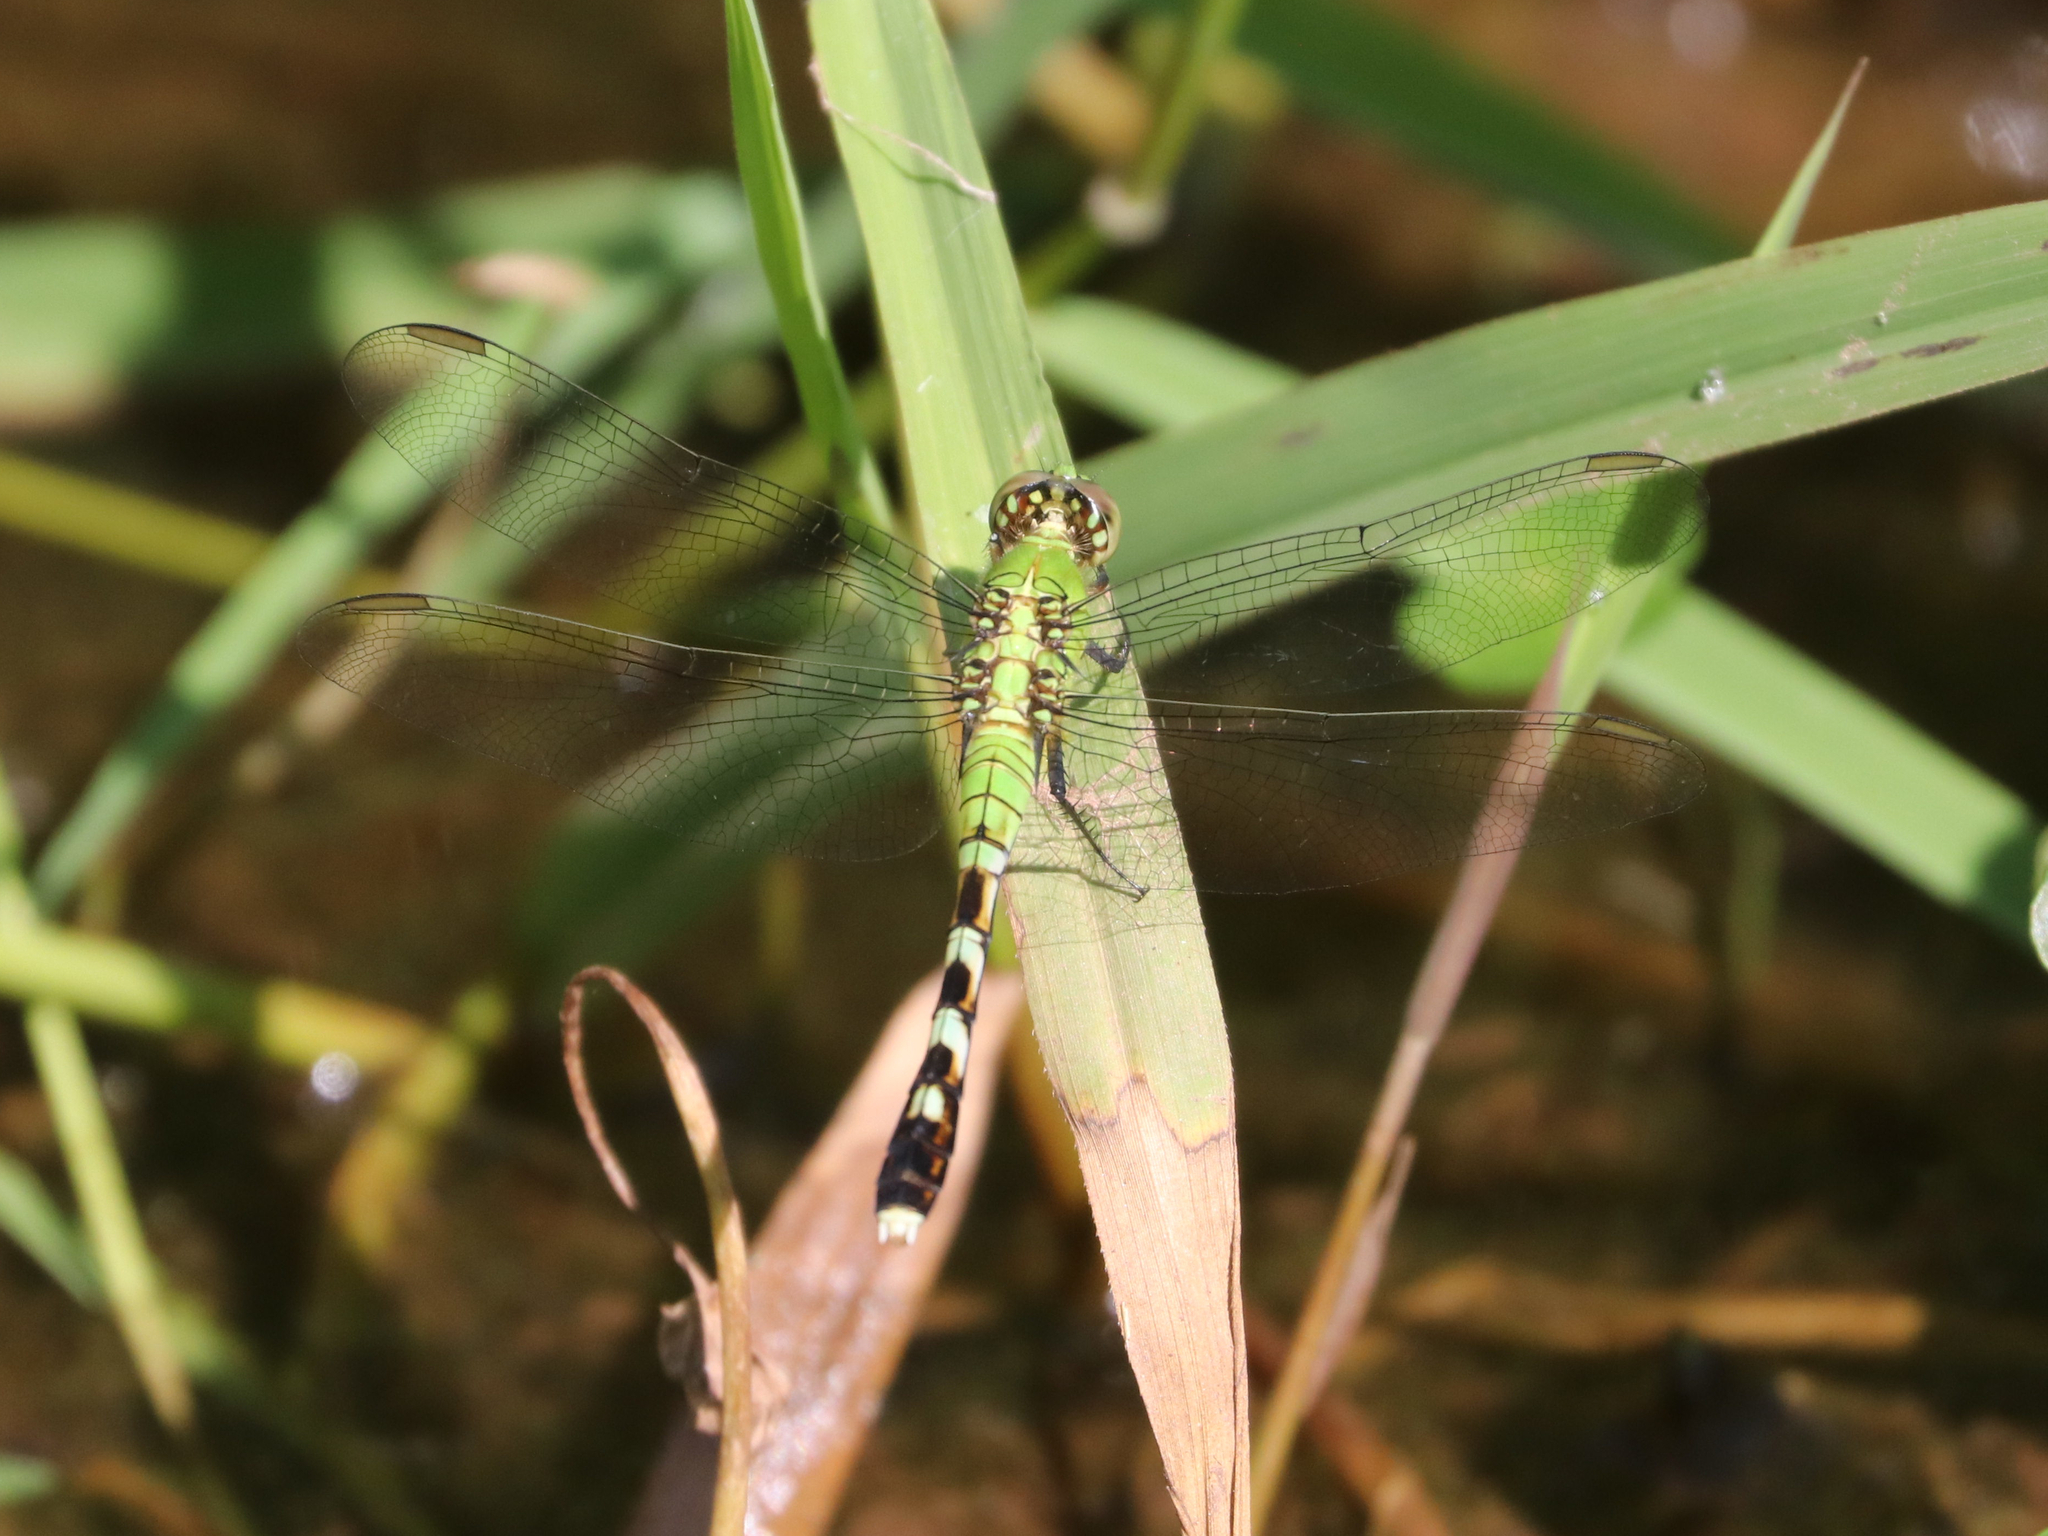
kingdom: Animalia
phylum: Arthropoda
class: Insecta
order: Odonata
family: Libellulidae
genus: Erythemis
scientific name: Erythemis simplicicollis
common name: Eastern pondhawk
